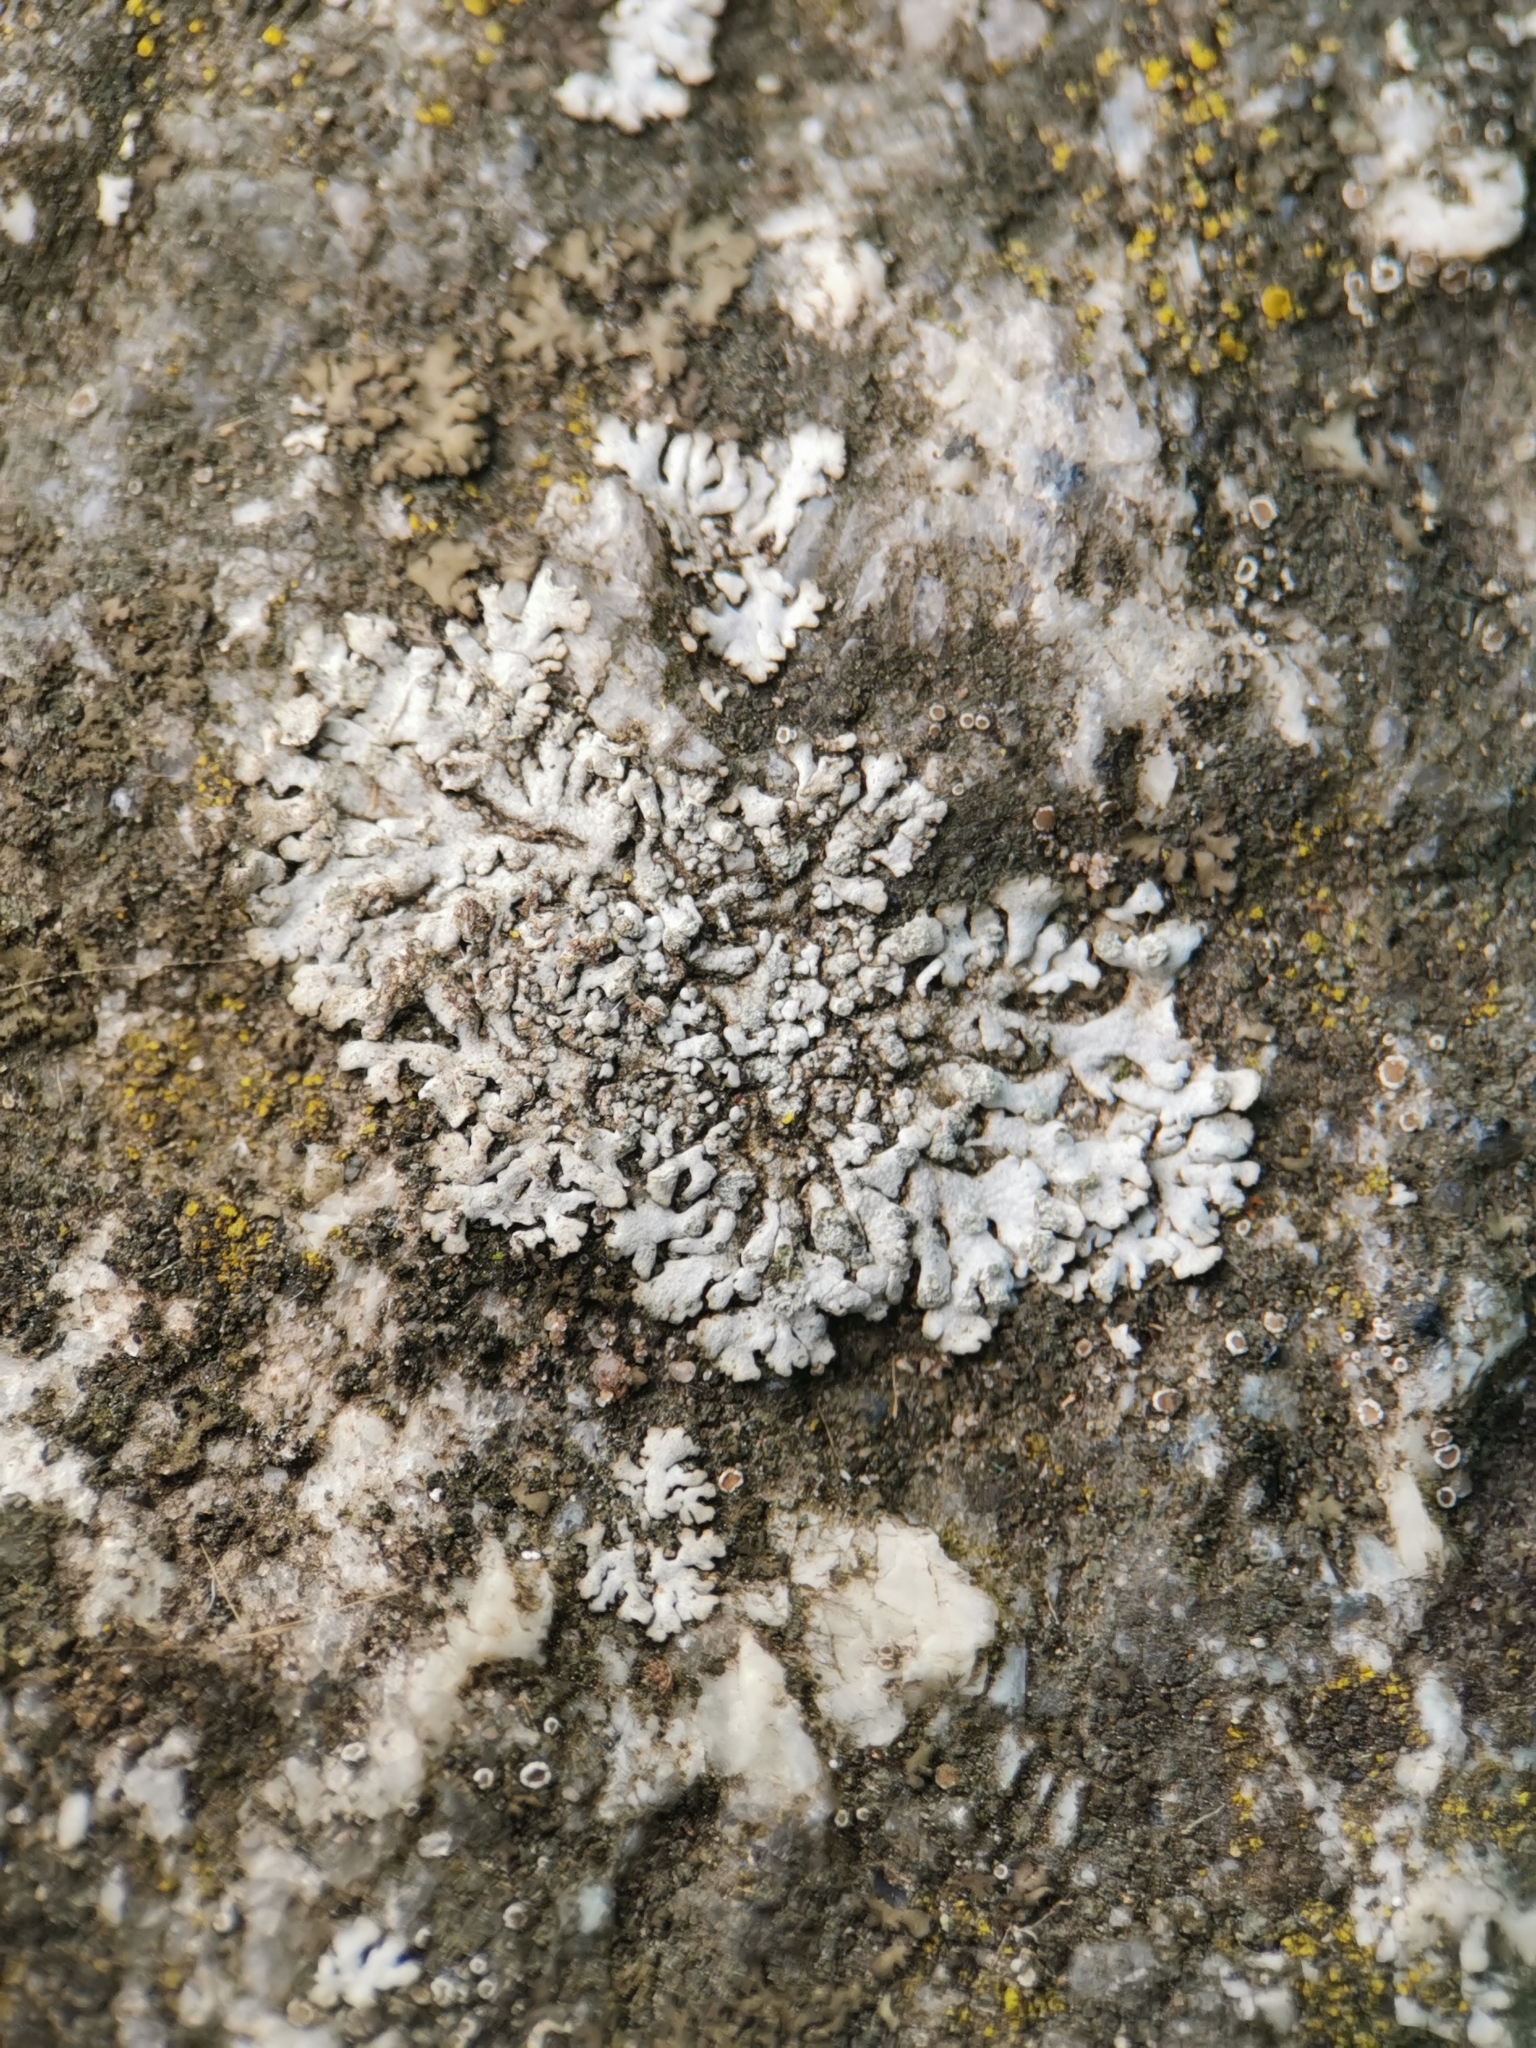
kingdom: Fungi
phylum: Ascomycota
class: Lecanoromycetes
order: Caliciales
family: Physciaceae
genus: Physcia
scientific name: Physcia caesia
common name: Blue-gray rosette lichen
